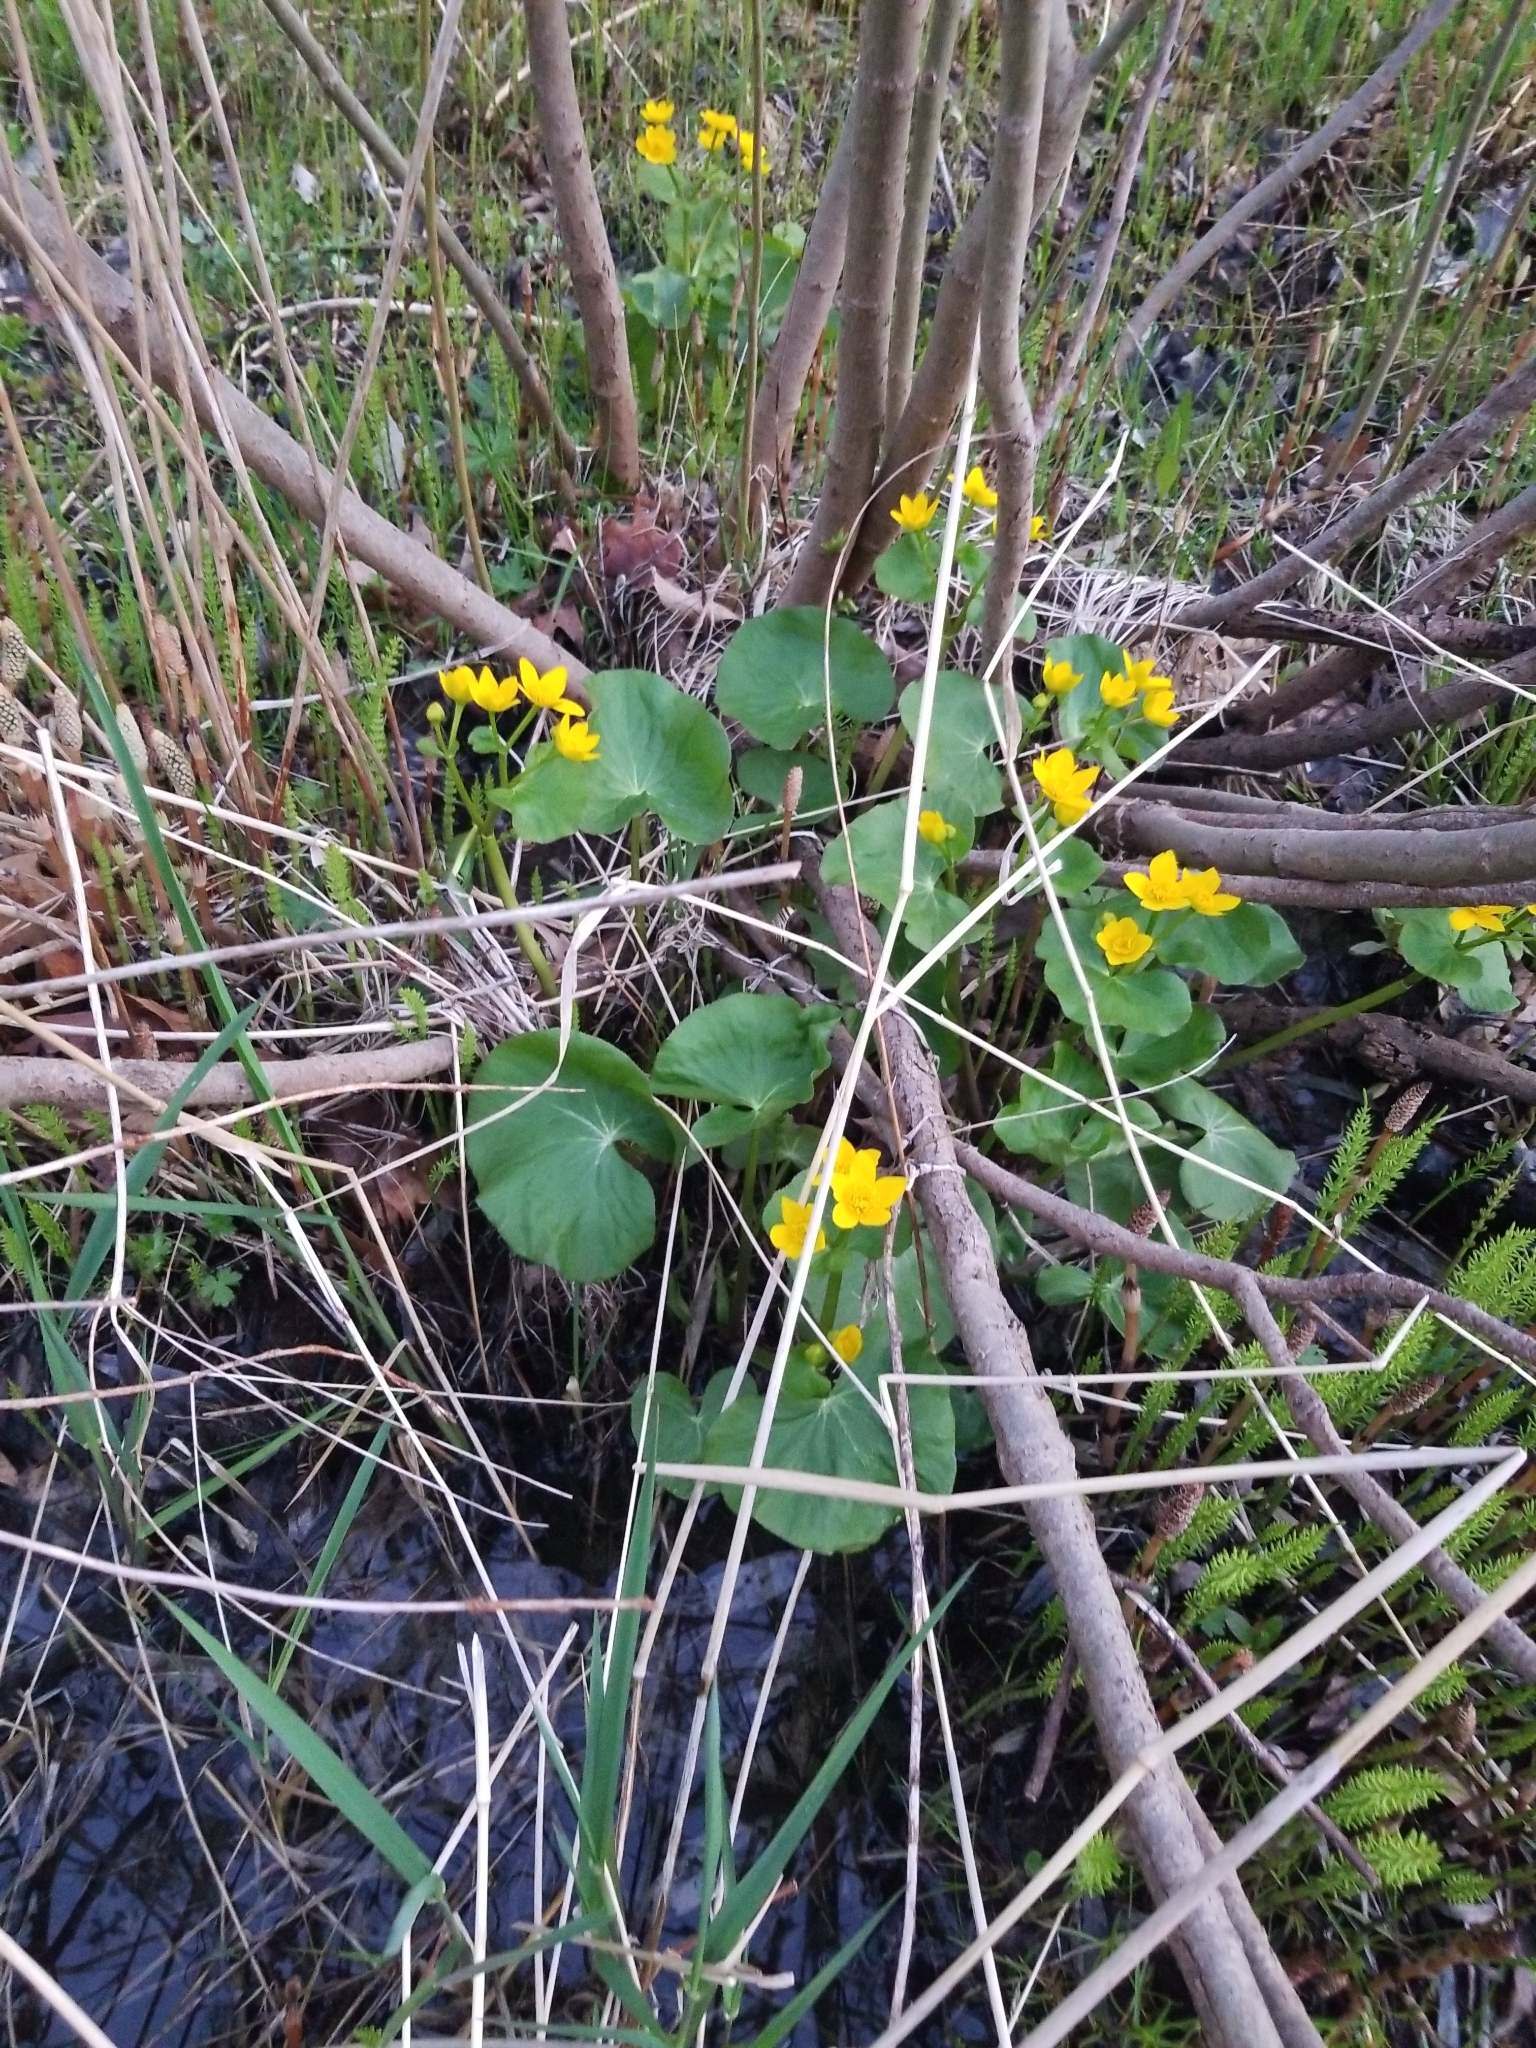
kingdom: Plantae
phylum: Tracheophyta
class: Magnoliopsida
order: Ranunculales
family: Ranunculaceae
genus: Caltha
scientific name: Caltha palustris
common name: Marsh marigold
